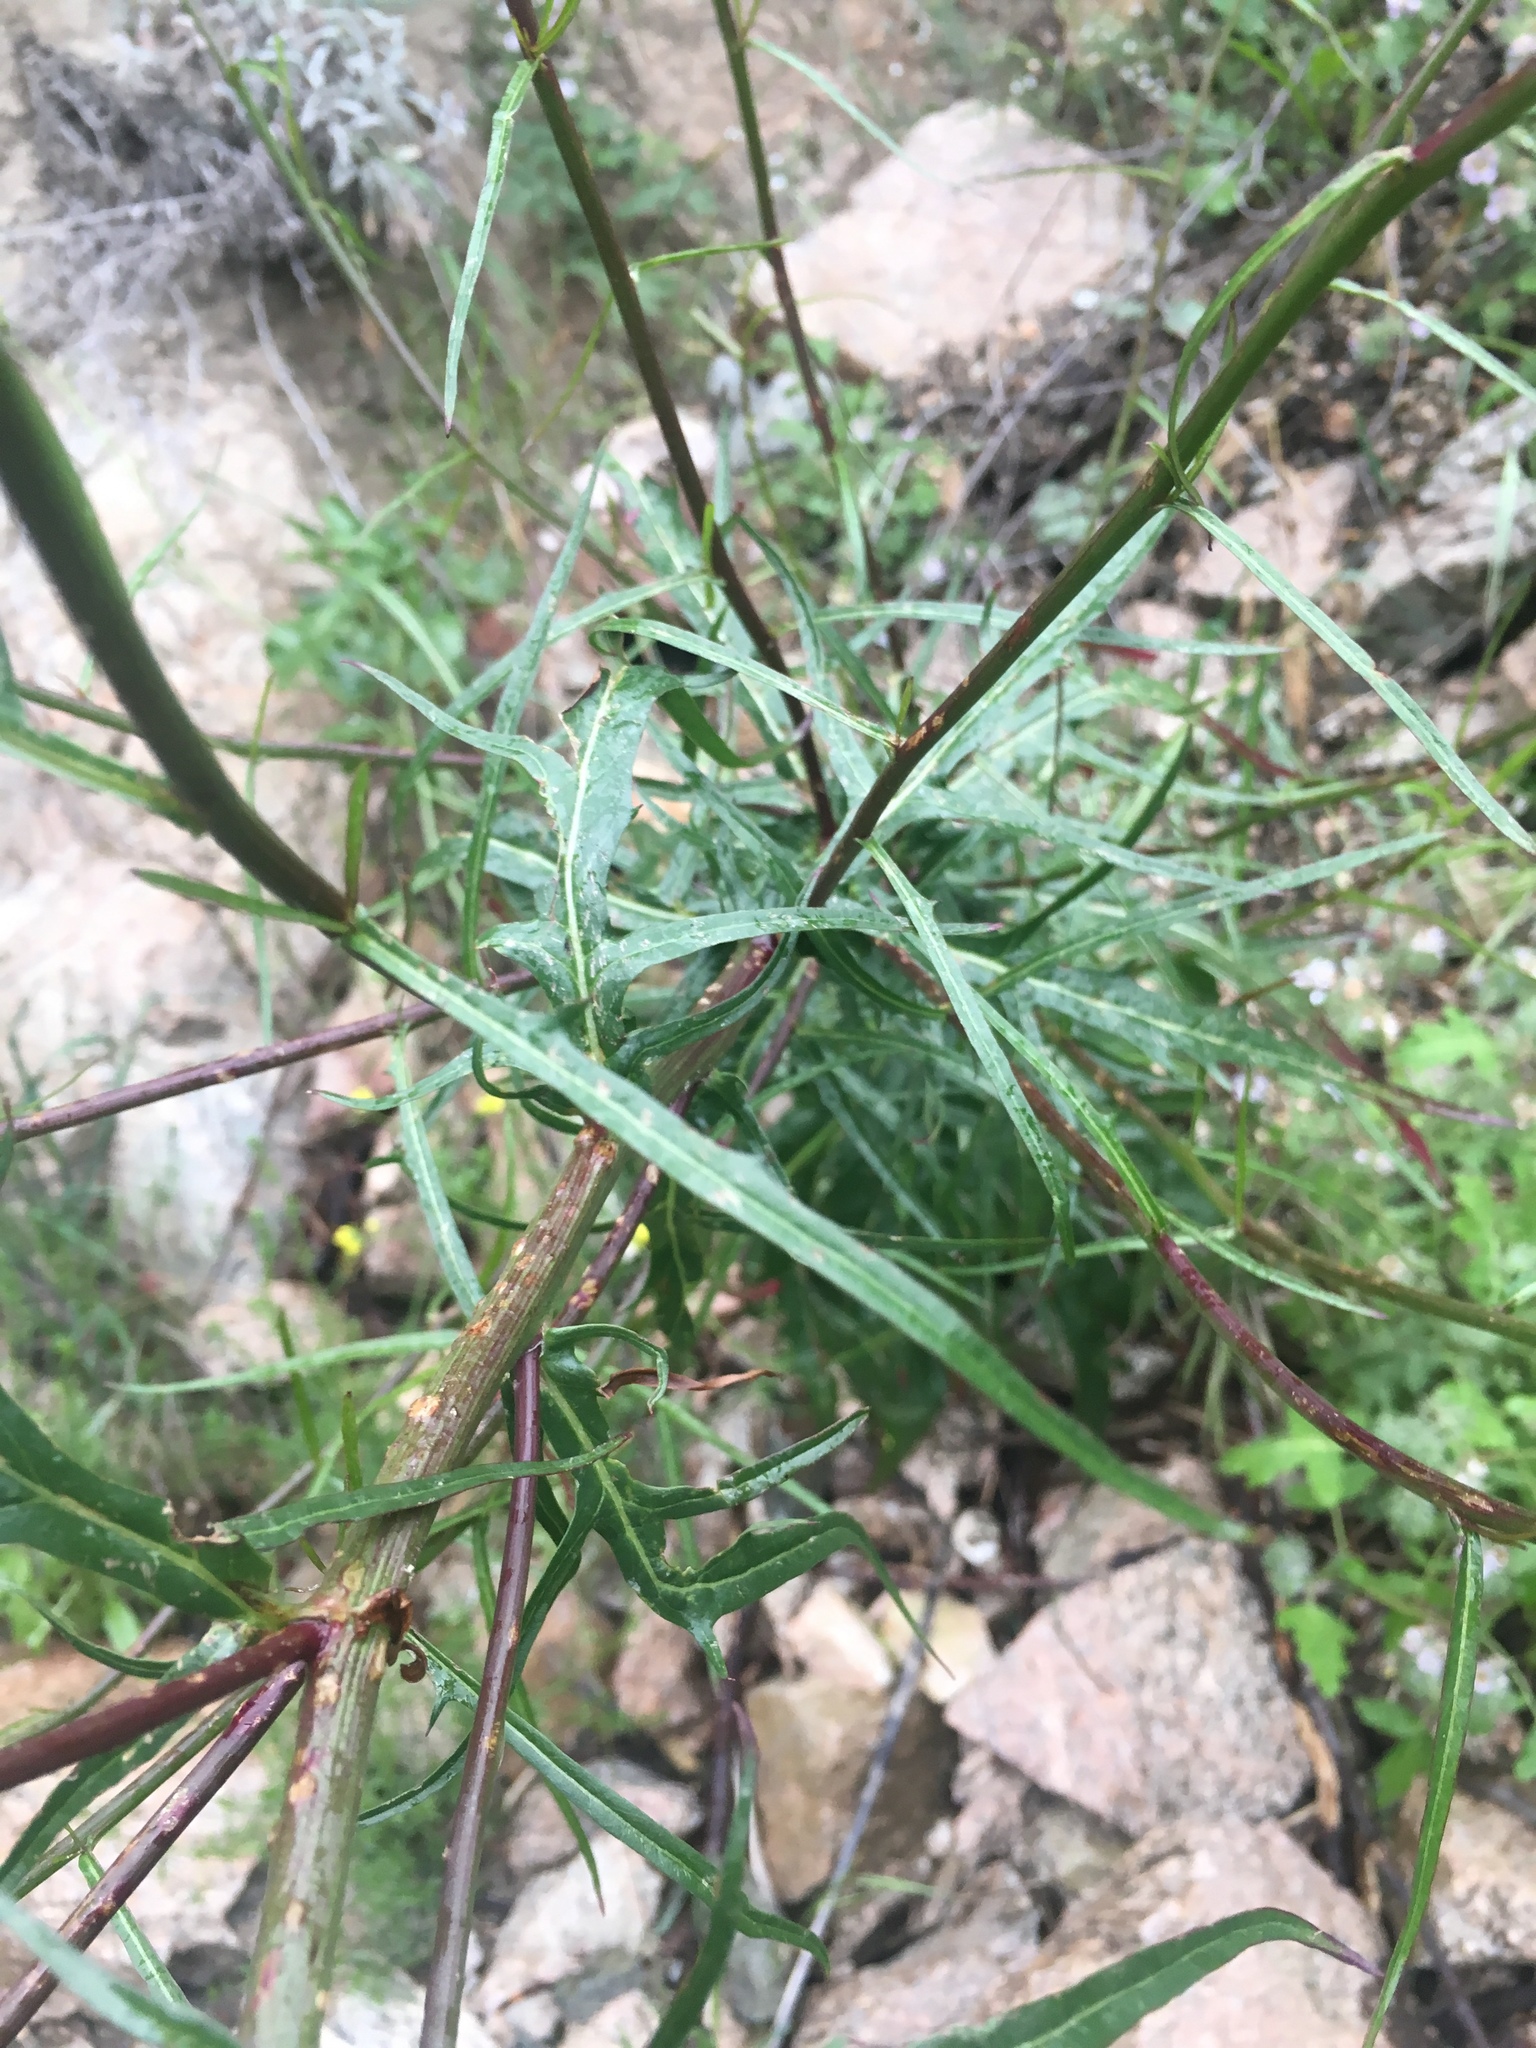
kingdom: Plantae
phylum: Tracheophyta
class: Magnoliopsida
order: Asterales
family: Asteraceae
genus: Malacothrix
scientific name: Malacothrix saxatilis
